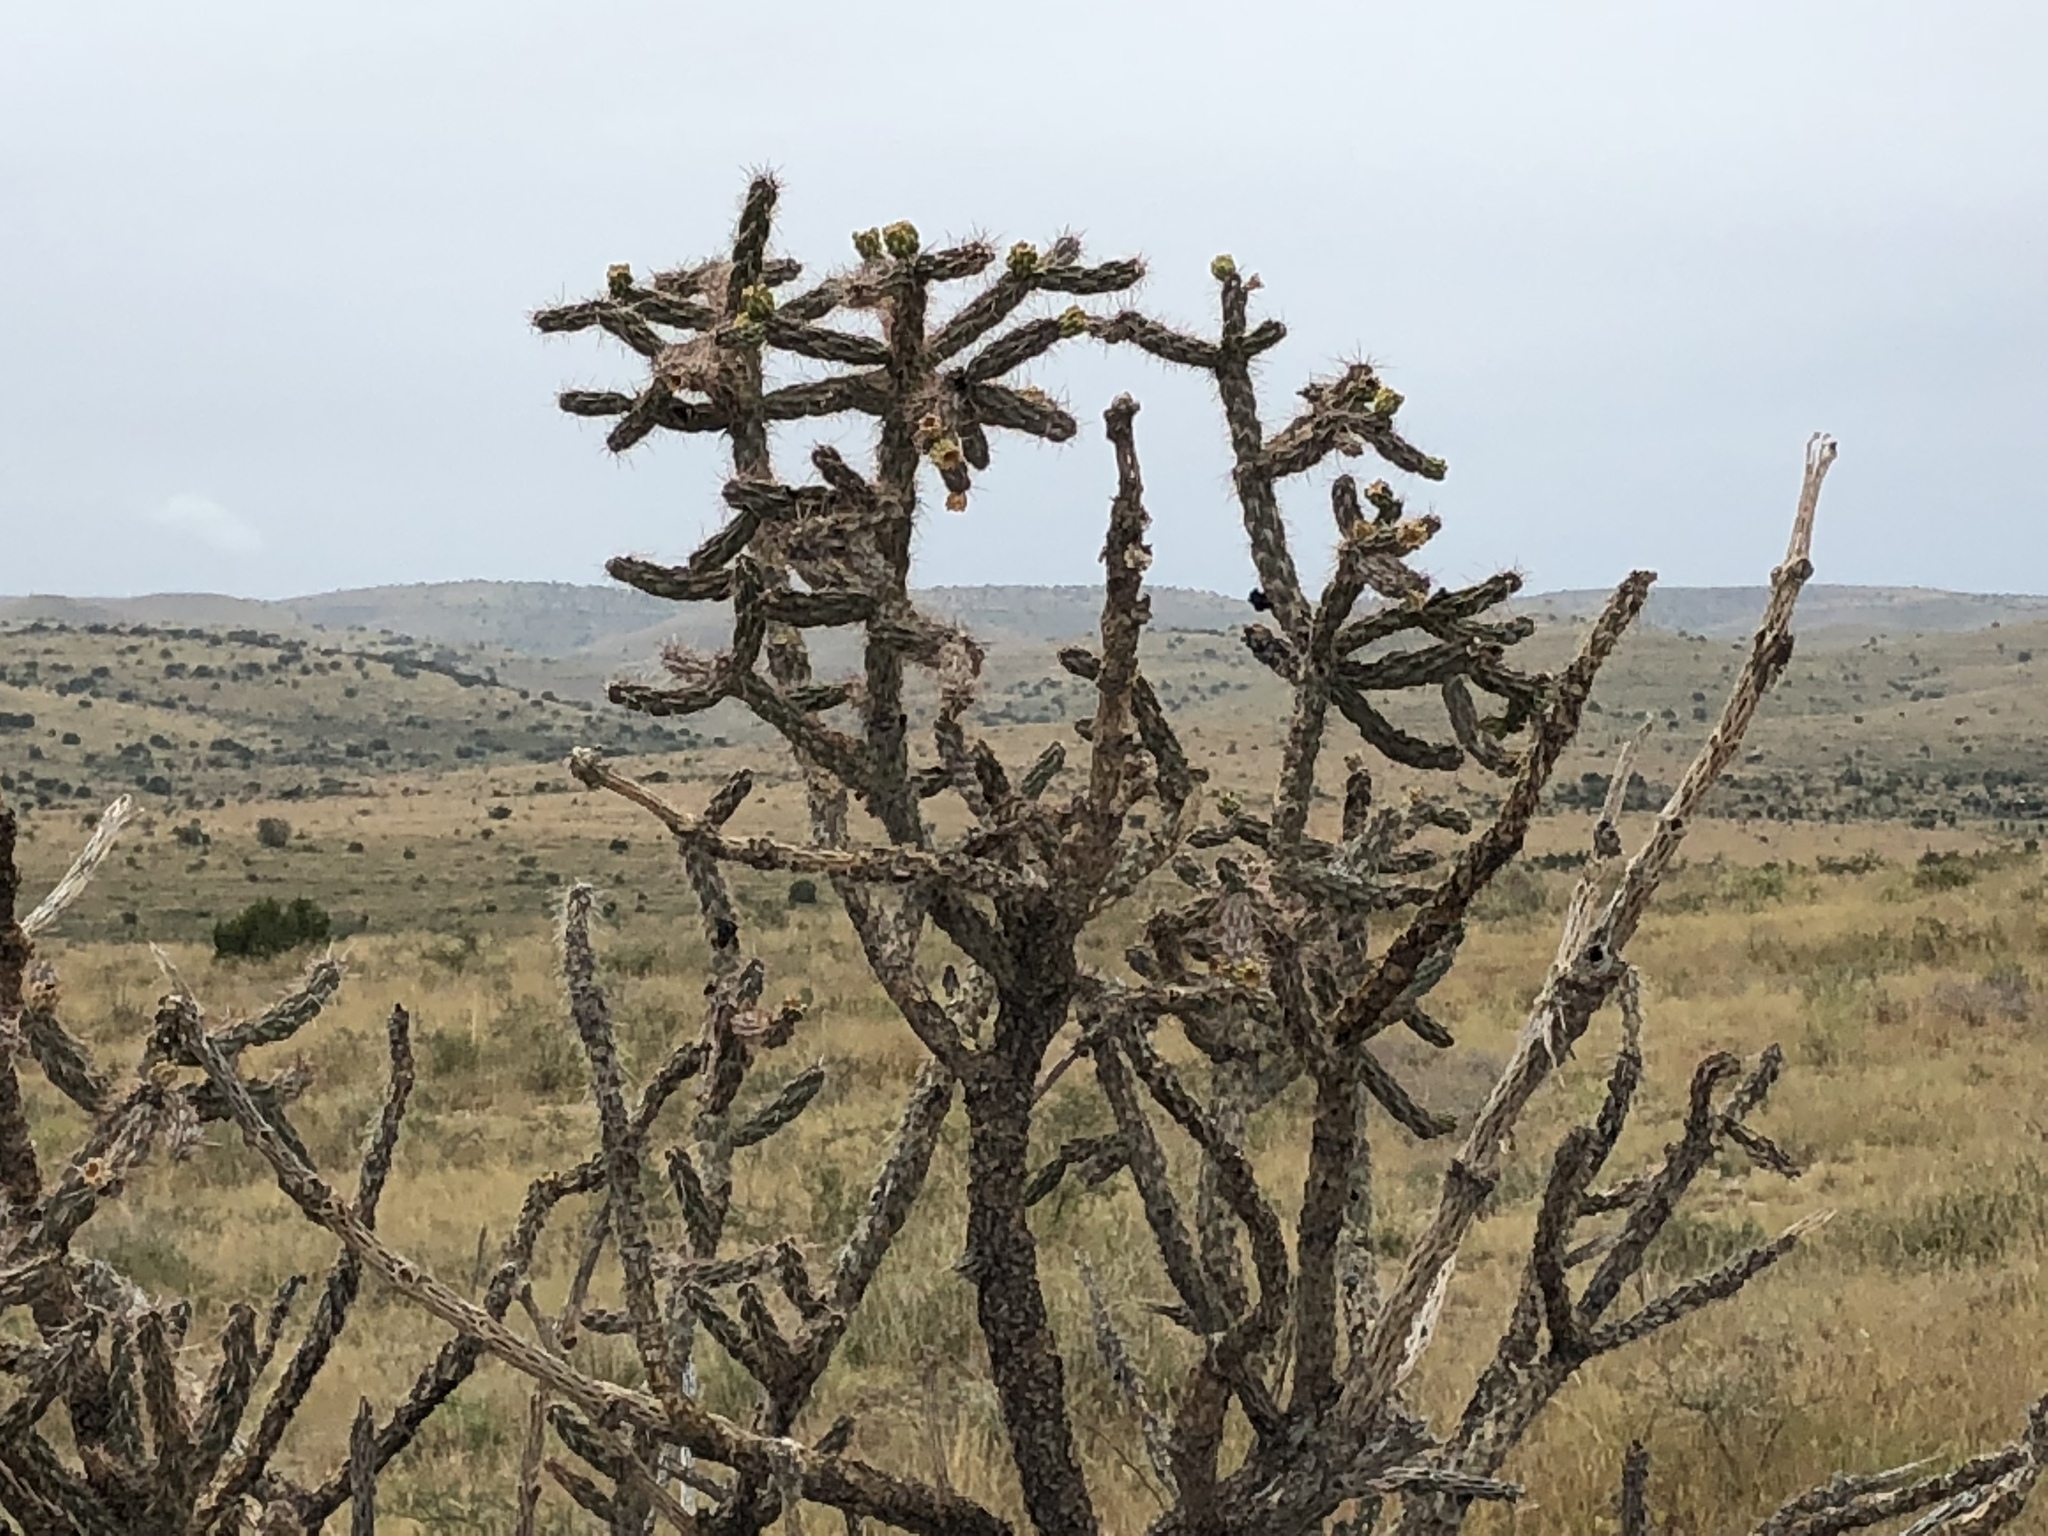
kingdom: Plantae
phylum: Tracheophyta
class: Magnoliopsida
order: Caryophyllales
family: Cactaceae
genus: Cylindropuntia
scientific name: Cylindropuntia imbricata
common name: Candelabrum cactus
